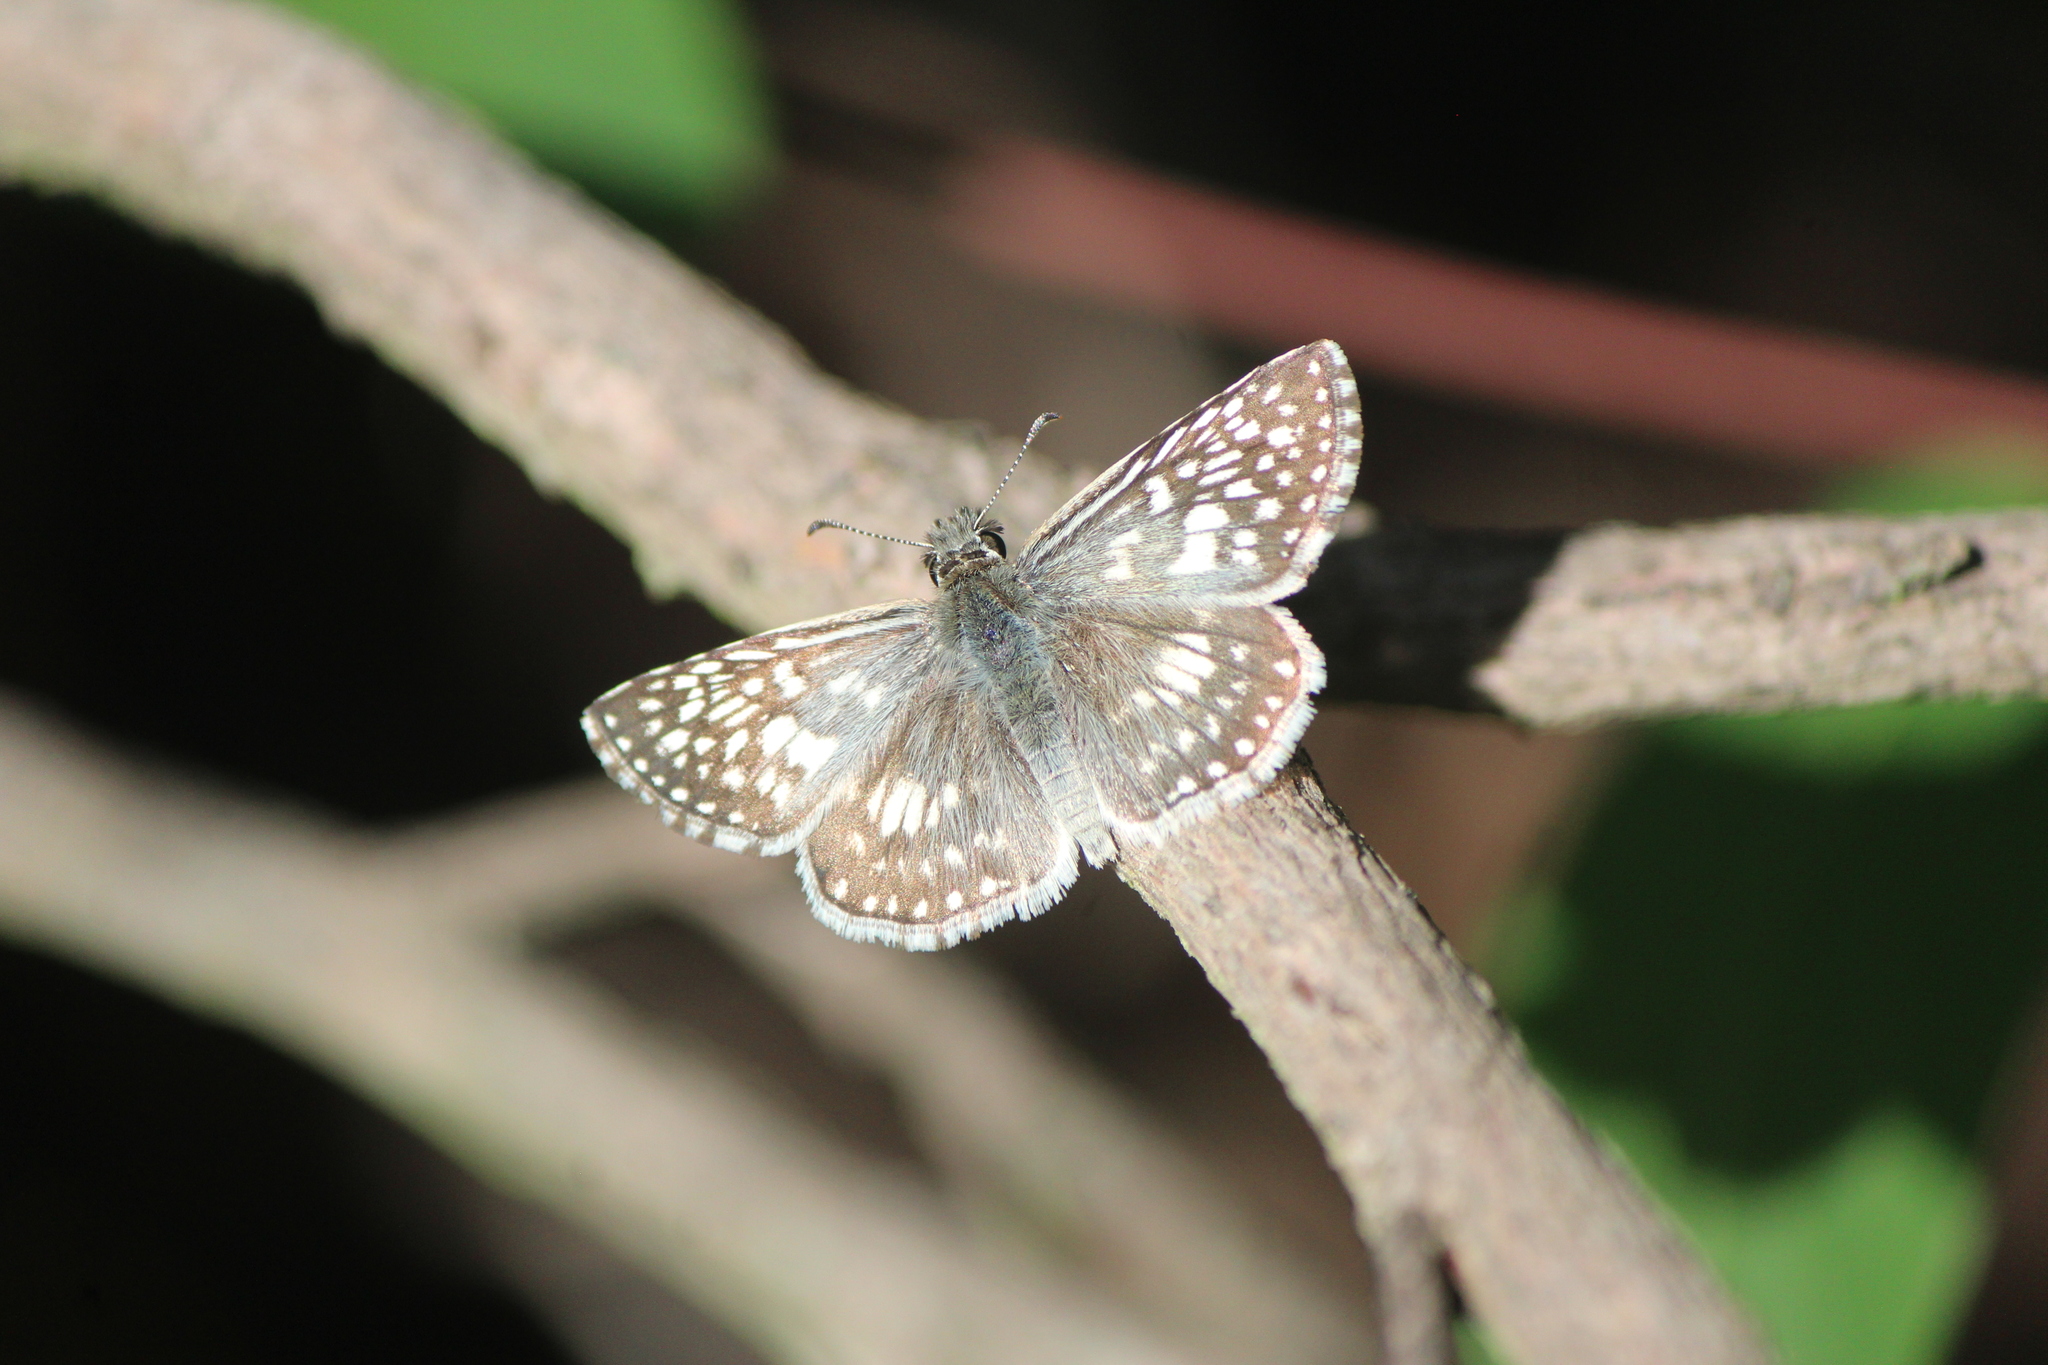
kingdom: Animalia
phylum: Arthropoda
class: Insecta
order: Lepidoptera
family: Hesperiidae
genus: Burnsius
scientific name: Burnsius philetas
